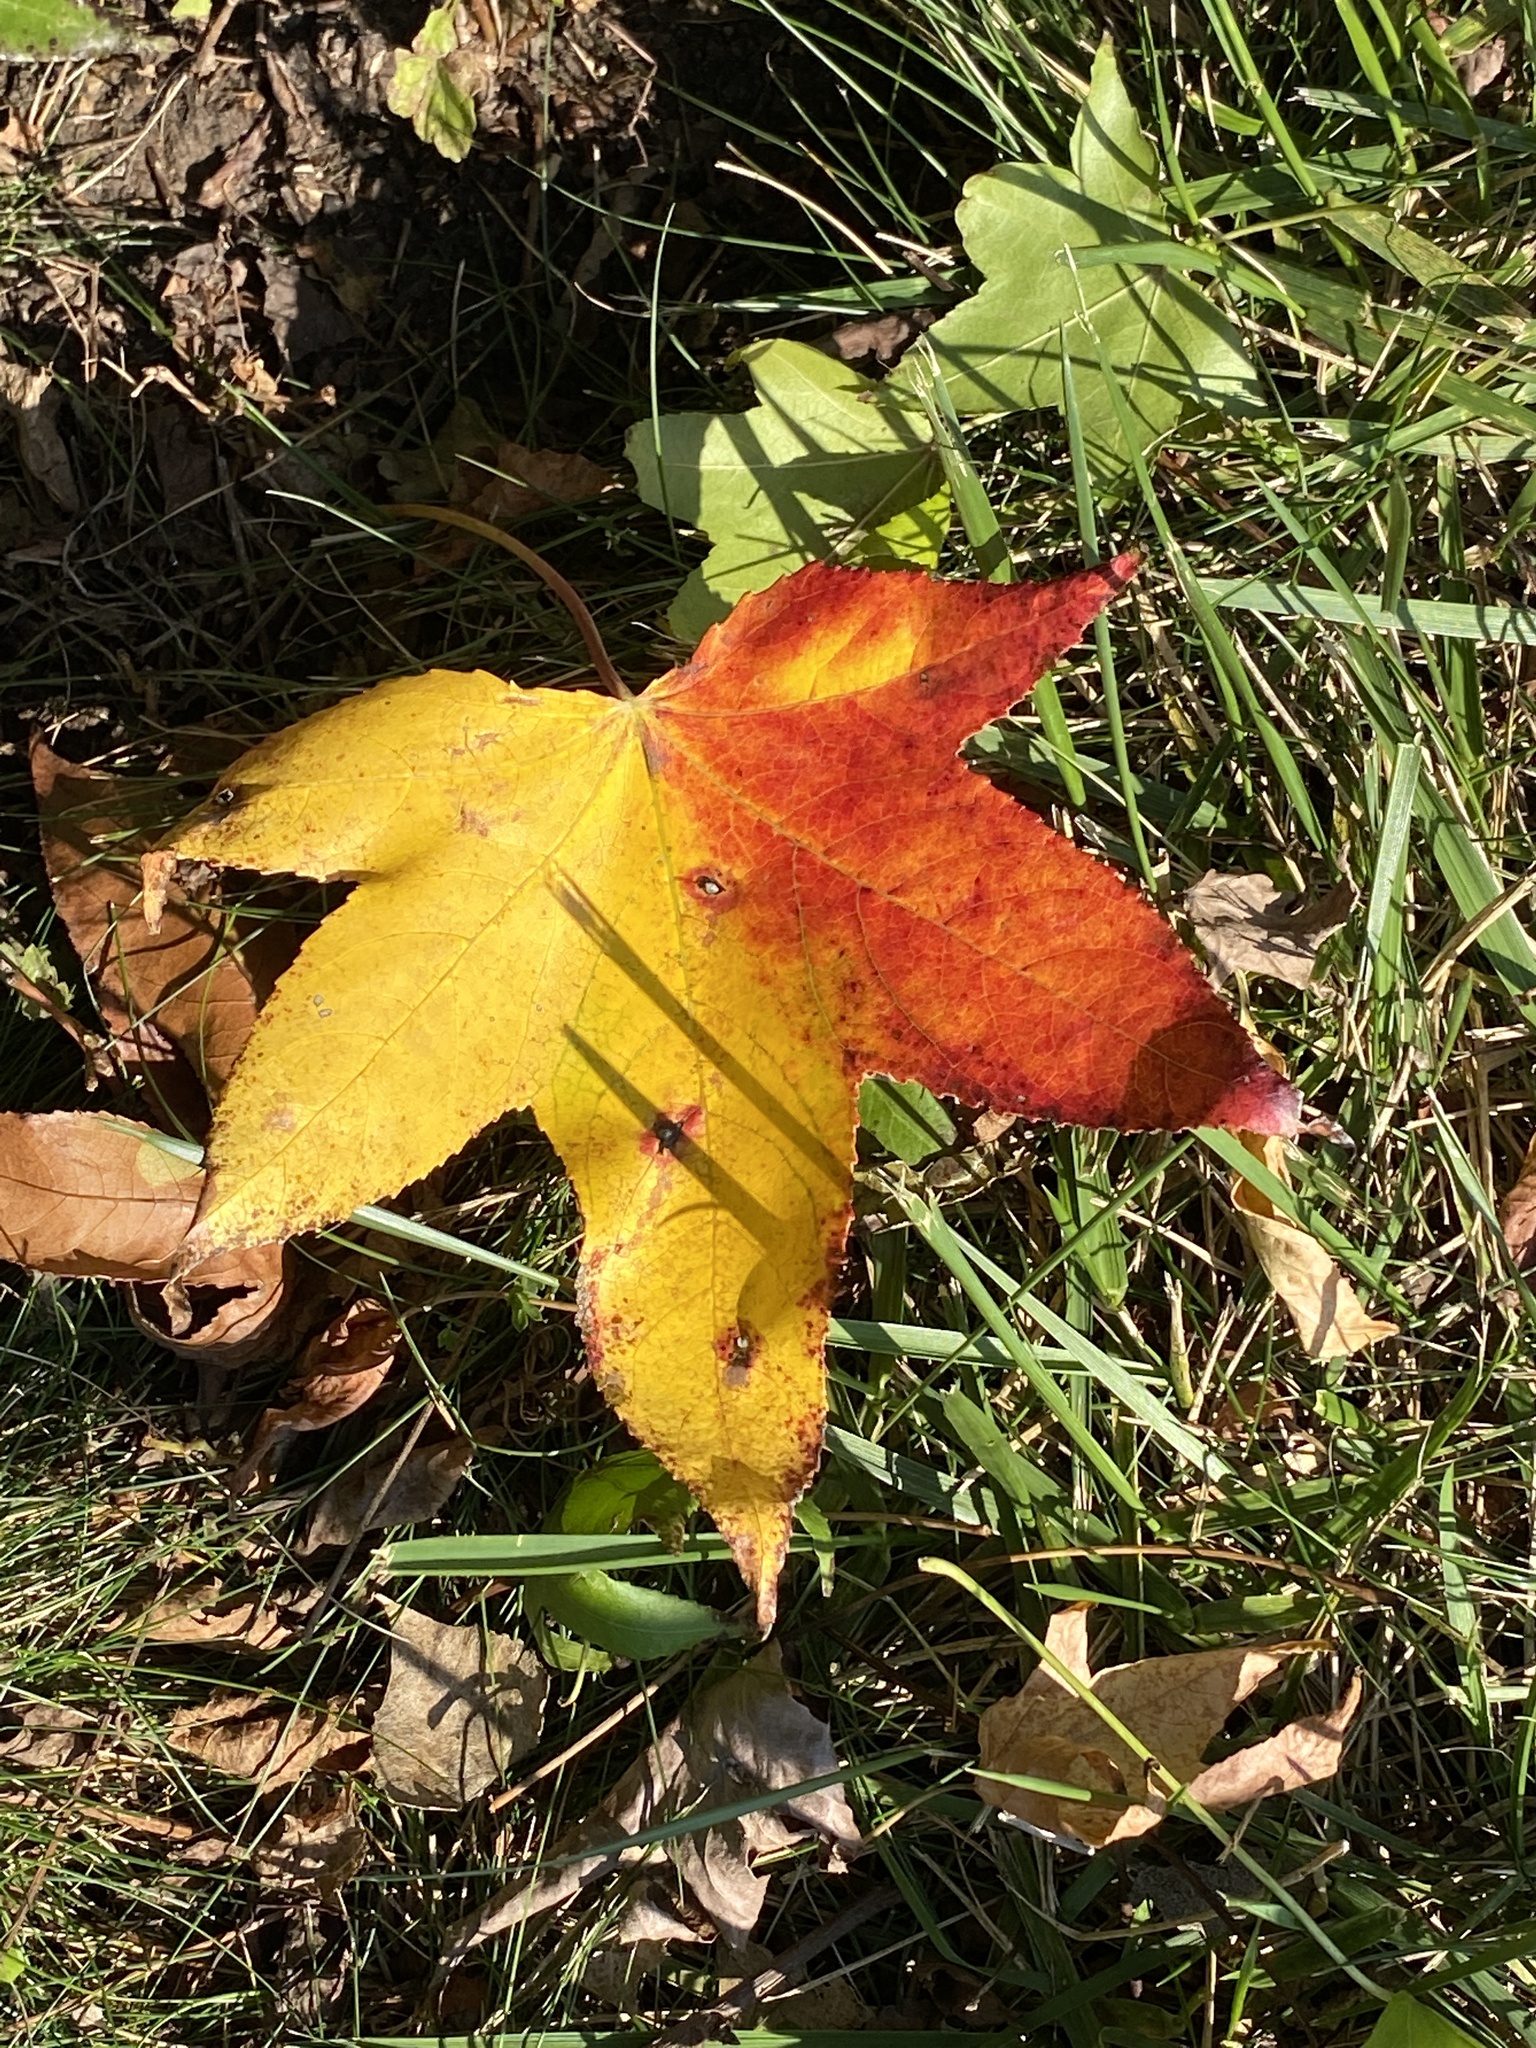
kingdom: Plantae
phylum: Tracheophyta
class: Magnoliopsida
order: Saxifragales
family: Altingiaceae
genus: Liquidambar
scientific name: Liquidambar styraciflua
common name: Sweet gum
